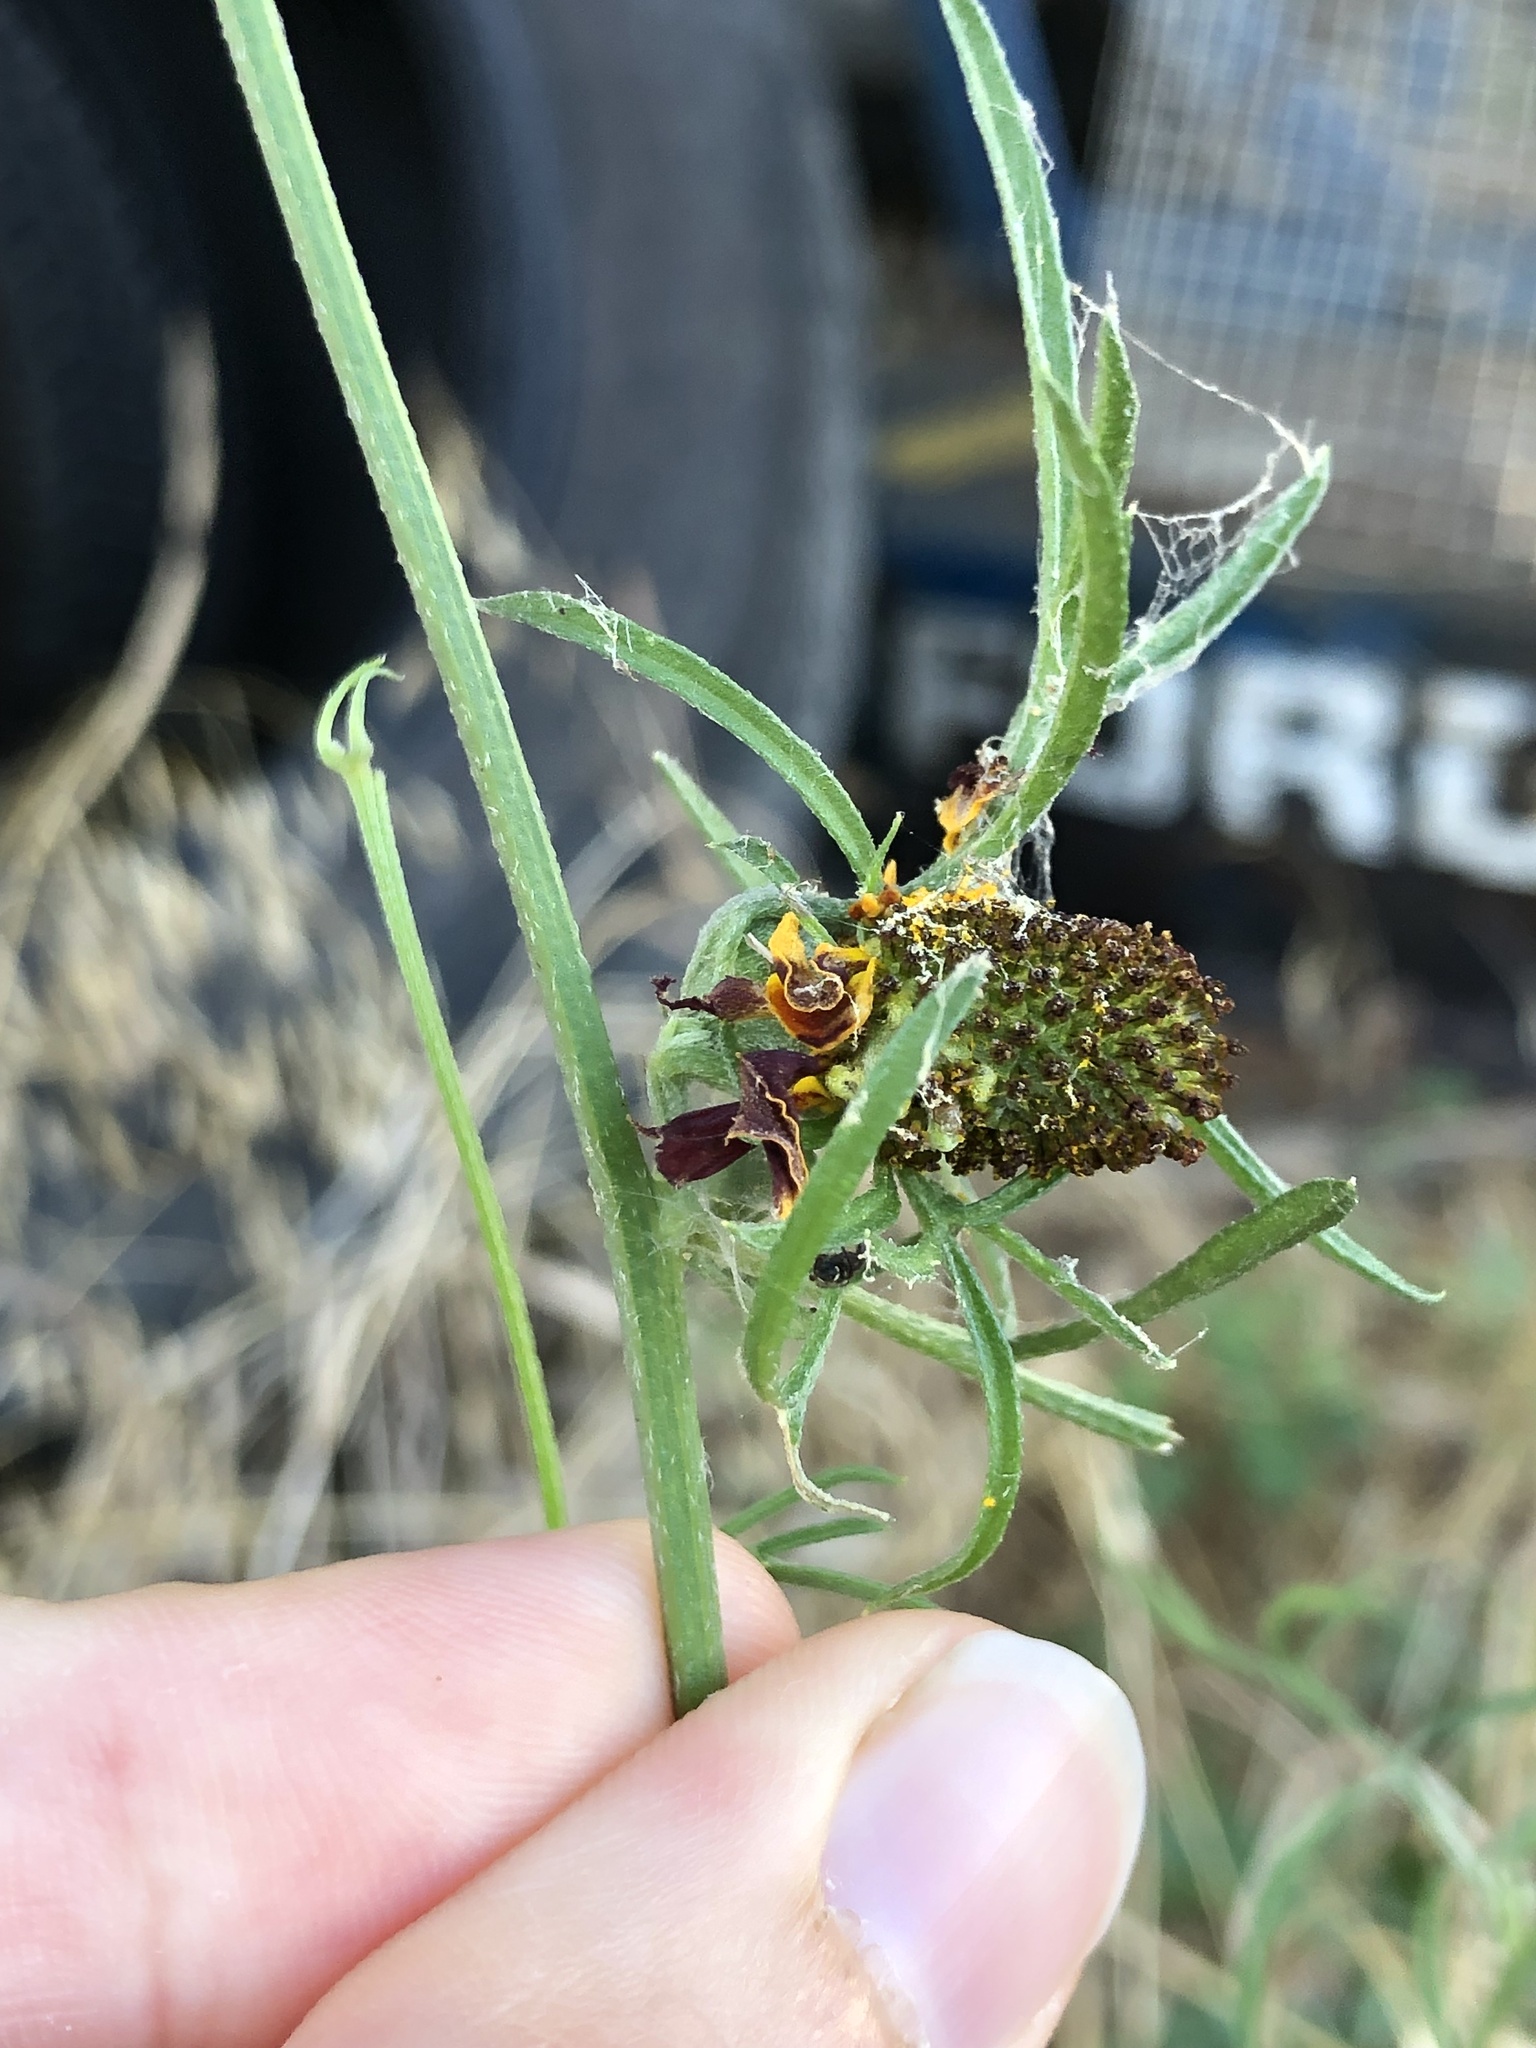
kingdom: Plantae
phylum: Tracheophyta
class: Magnoliopsida
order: Asterales
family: Asteraceae
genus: Ratibida
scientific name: Ratibida columnifera
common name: Prairie coneflower
